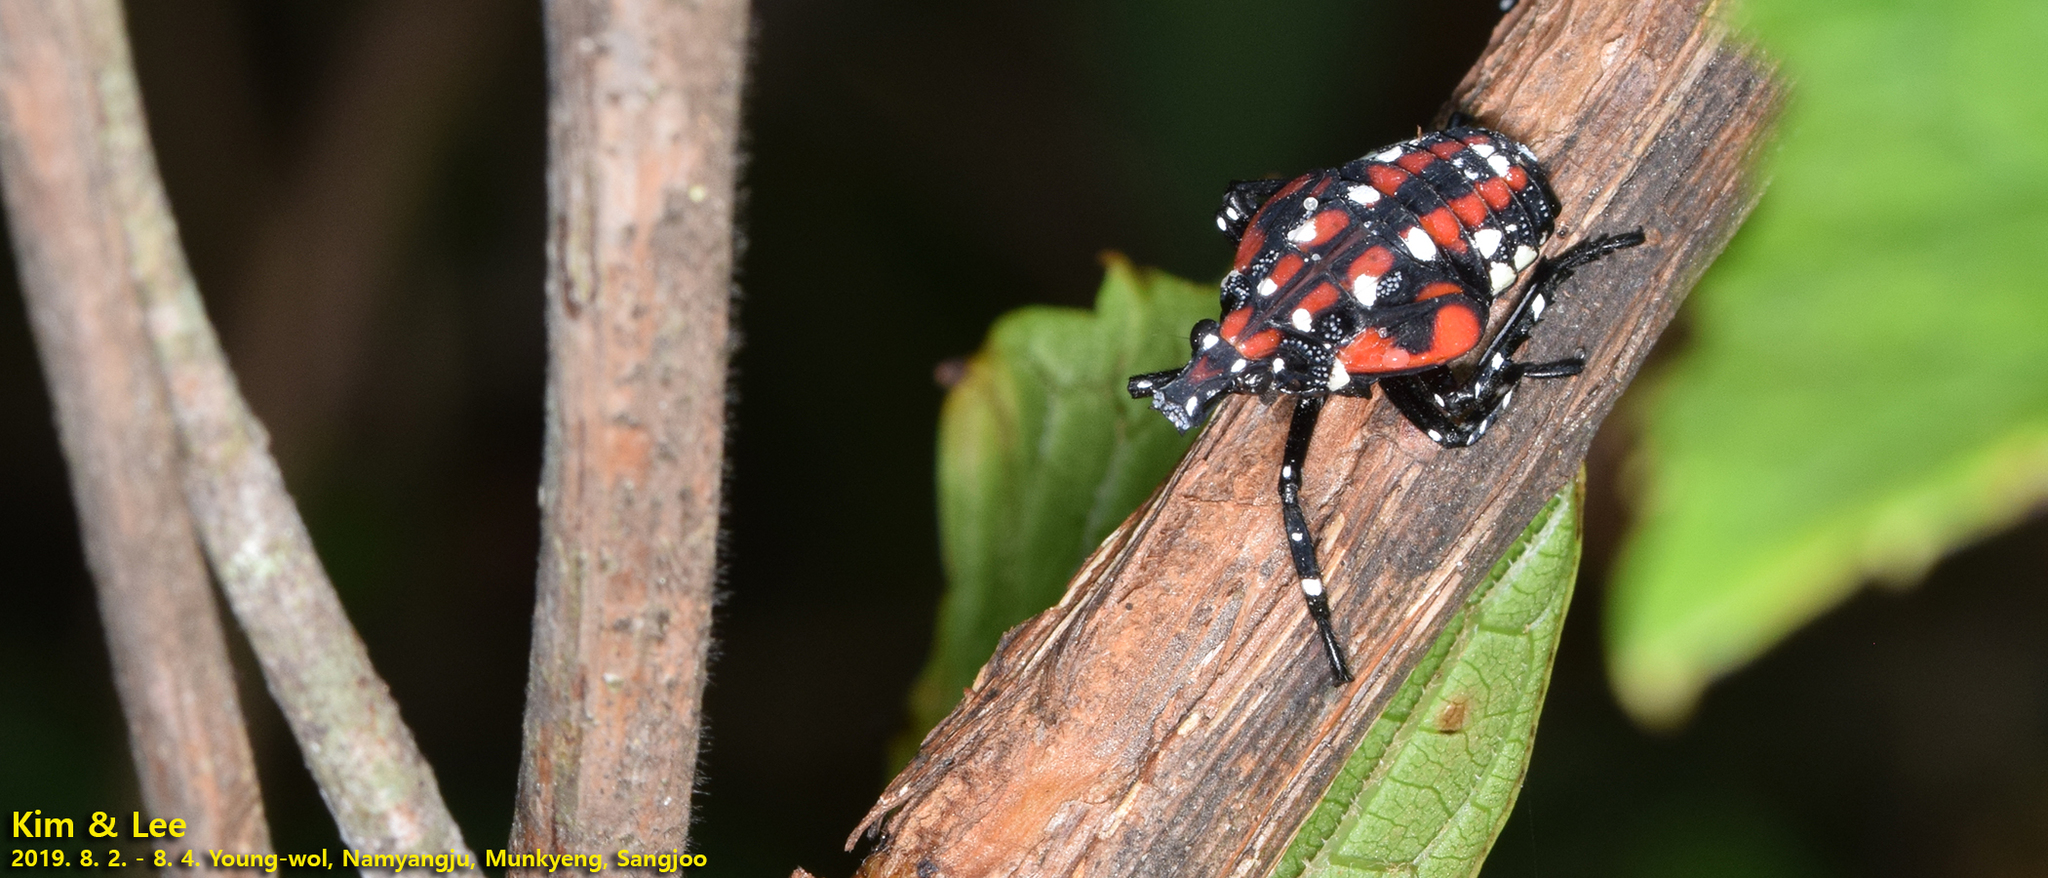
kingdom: Animalia
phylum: Arthropoda
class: Insecta
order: Hemiptera
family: Fulgoridae
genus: Lycorma
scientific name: Lycorma delicatula
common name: Spotted lanternfly
